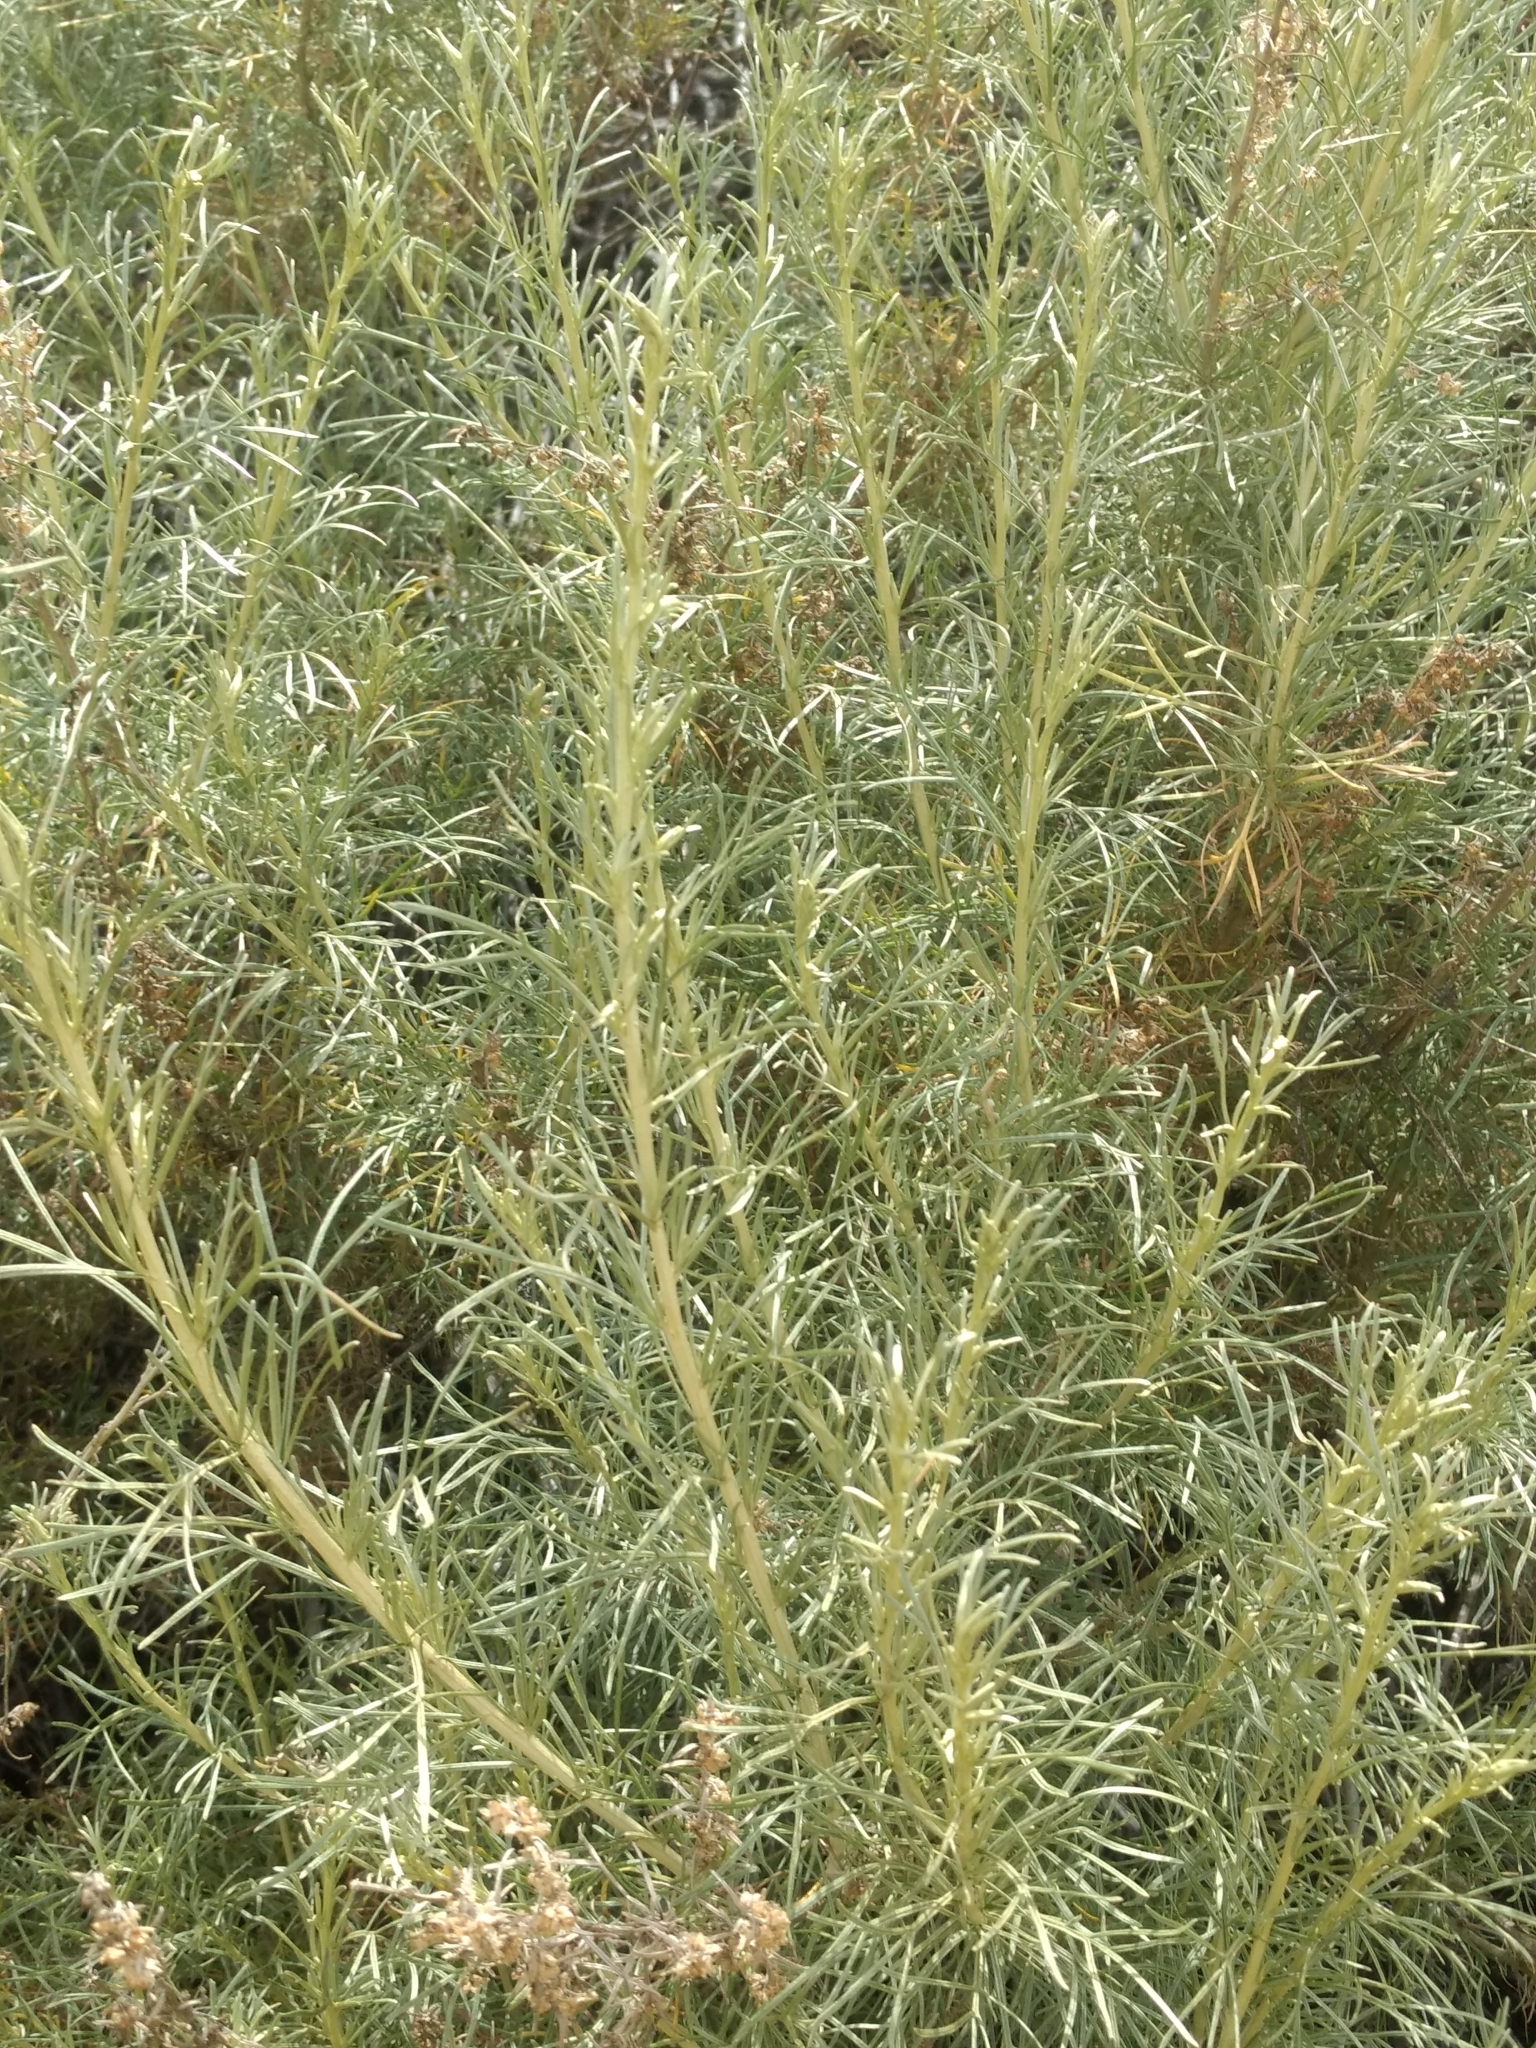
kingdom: Plantae
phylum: Tracheophyta
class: Magnoliopsida
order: Asterales
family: Asteraceae
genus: Artemisia
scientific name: Artemisia californica
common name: California sagebrush
